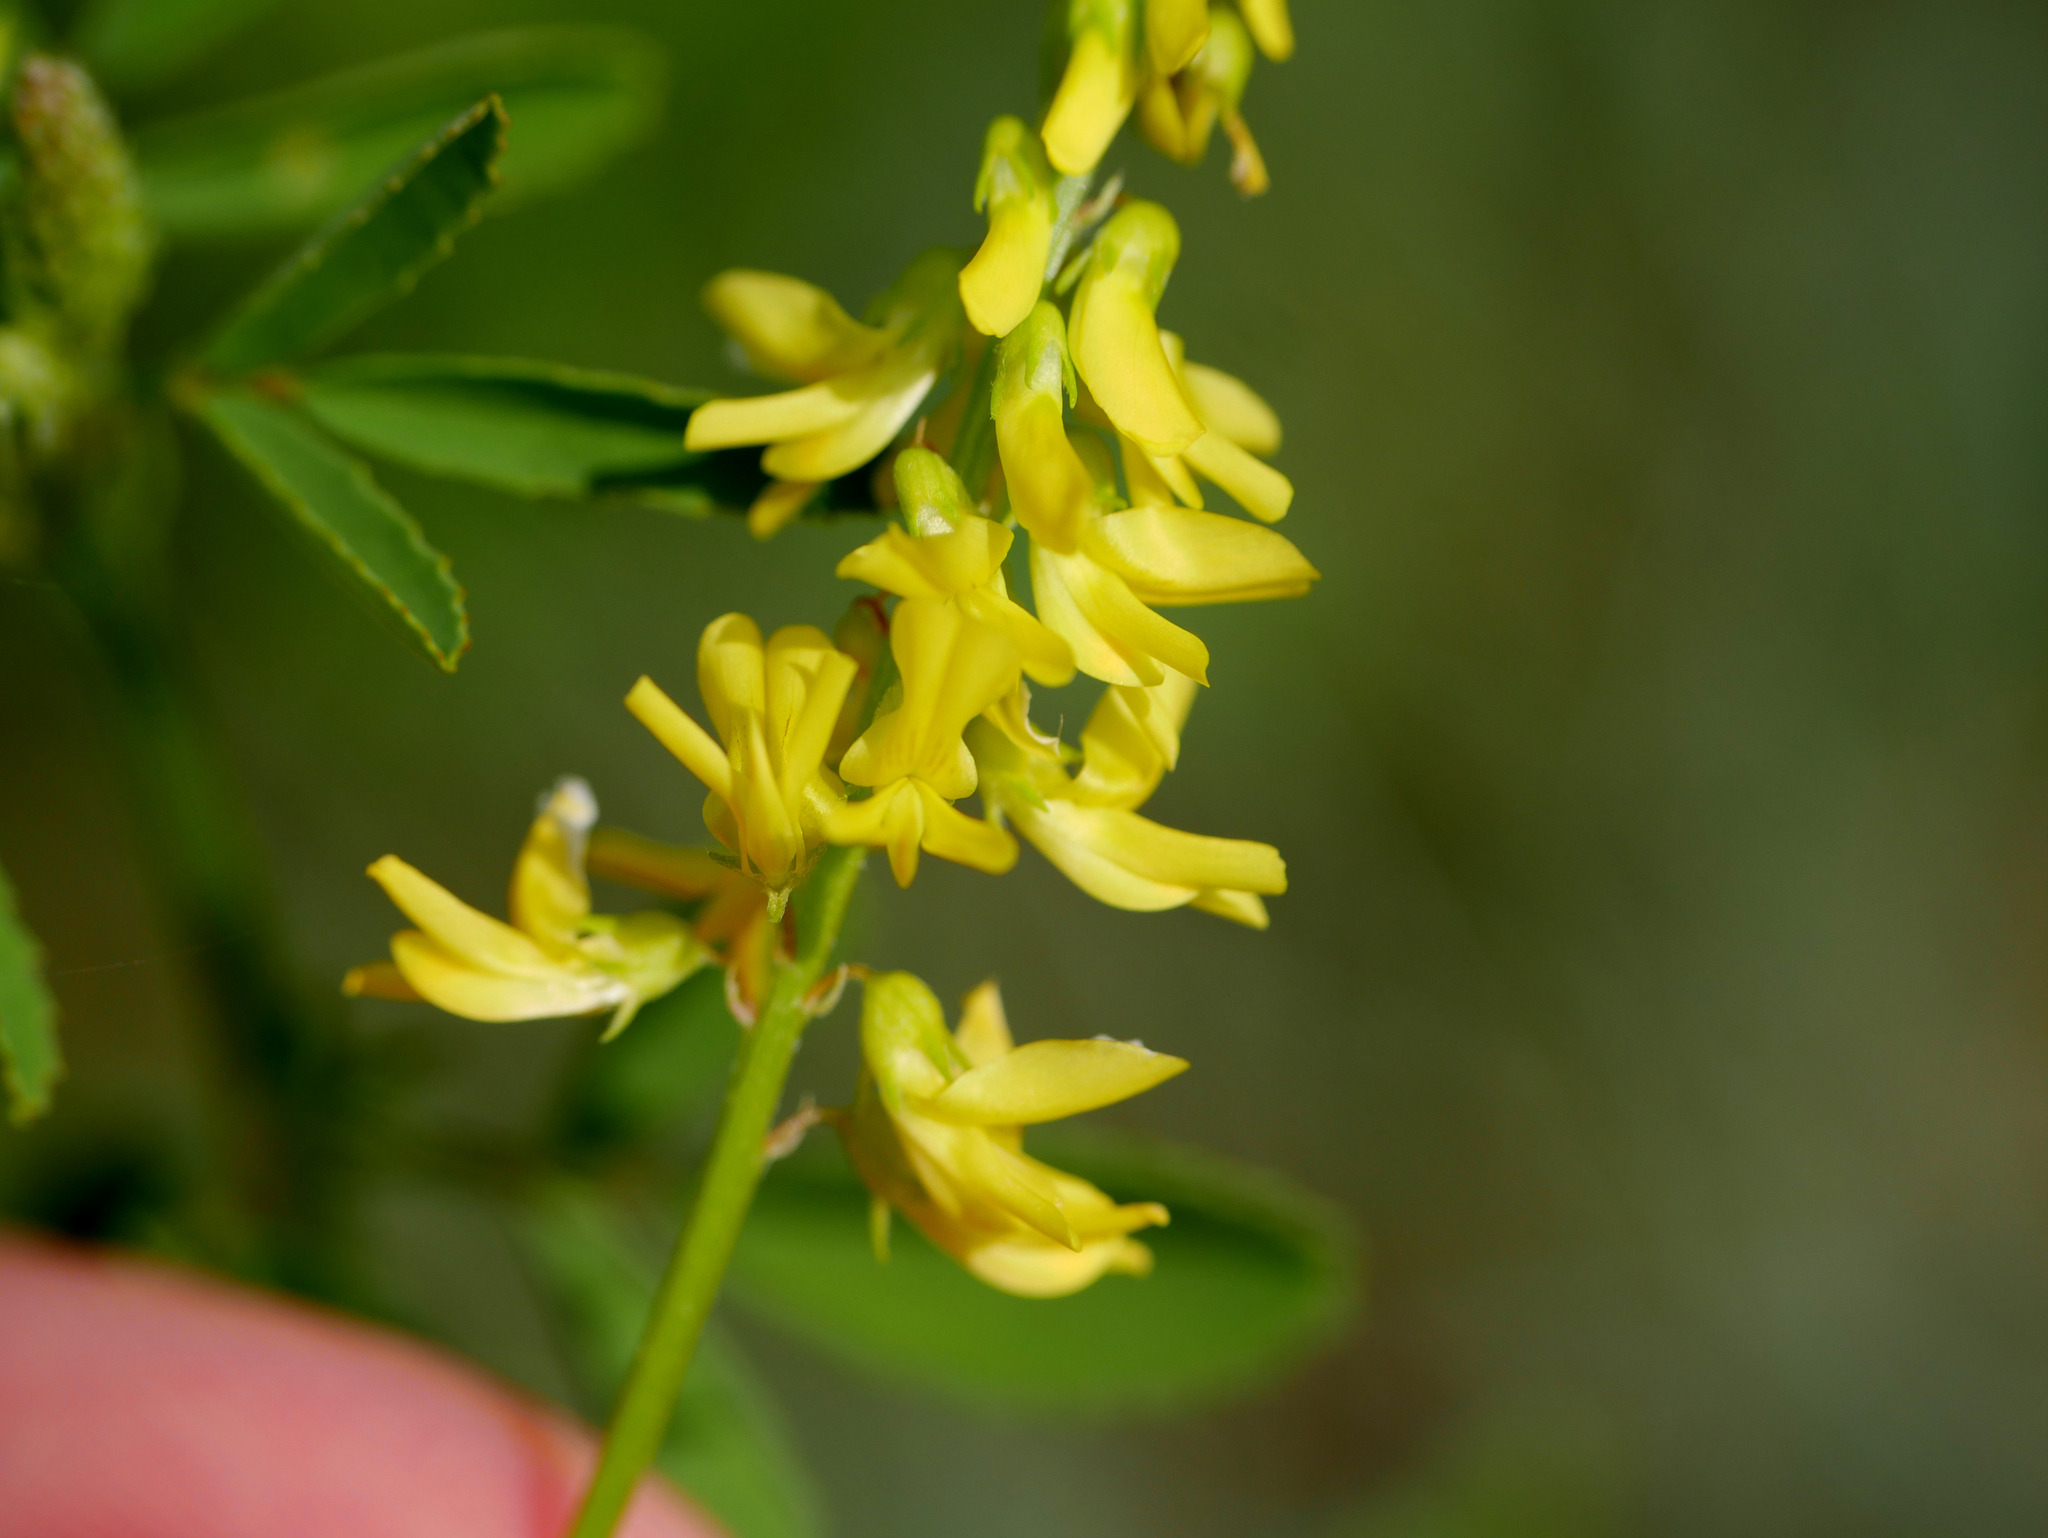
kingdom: Plantae
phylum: Tracheophyta
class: Magnoliopsida
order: Fabales
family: Fabaceae
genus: Melilotus
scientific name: Melilotus officinalis
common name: Sweetclover
